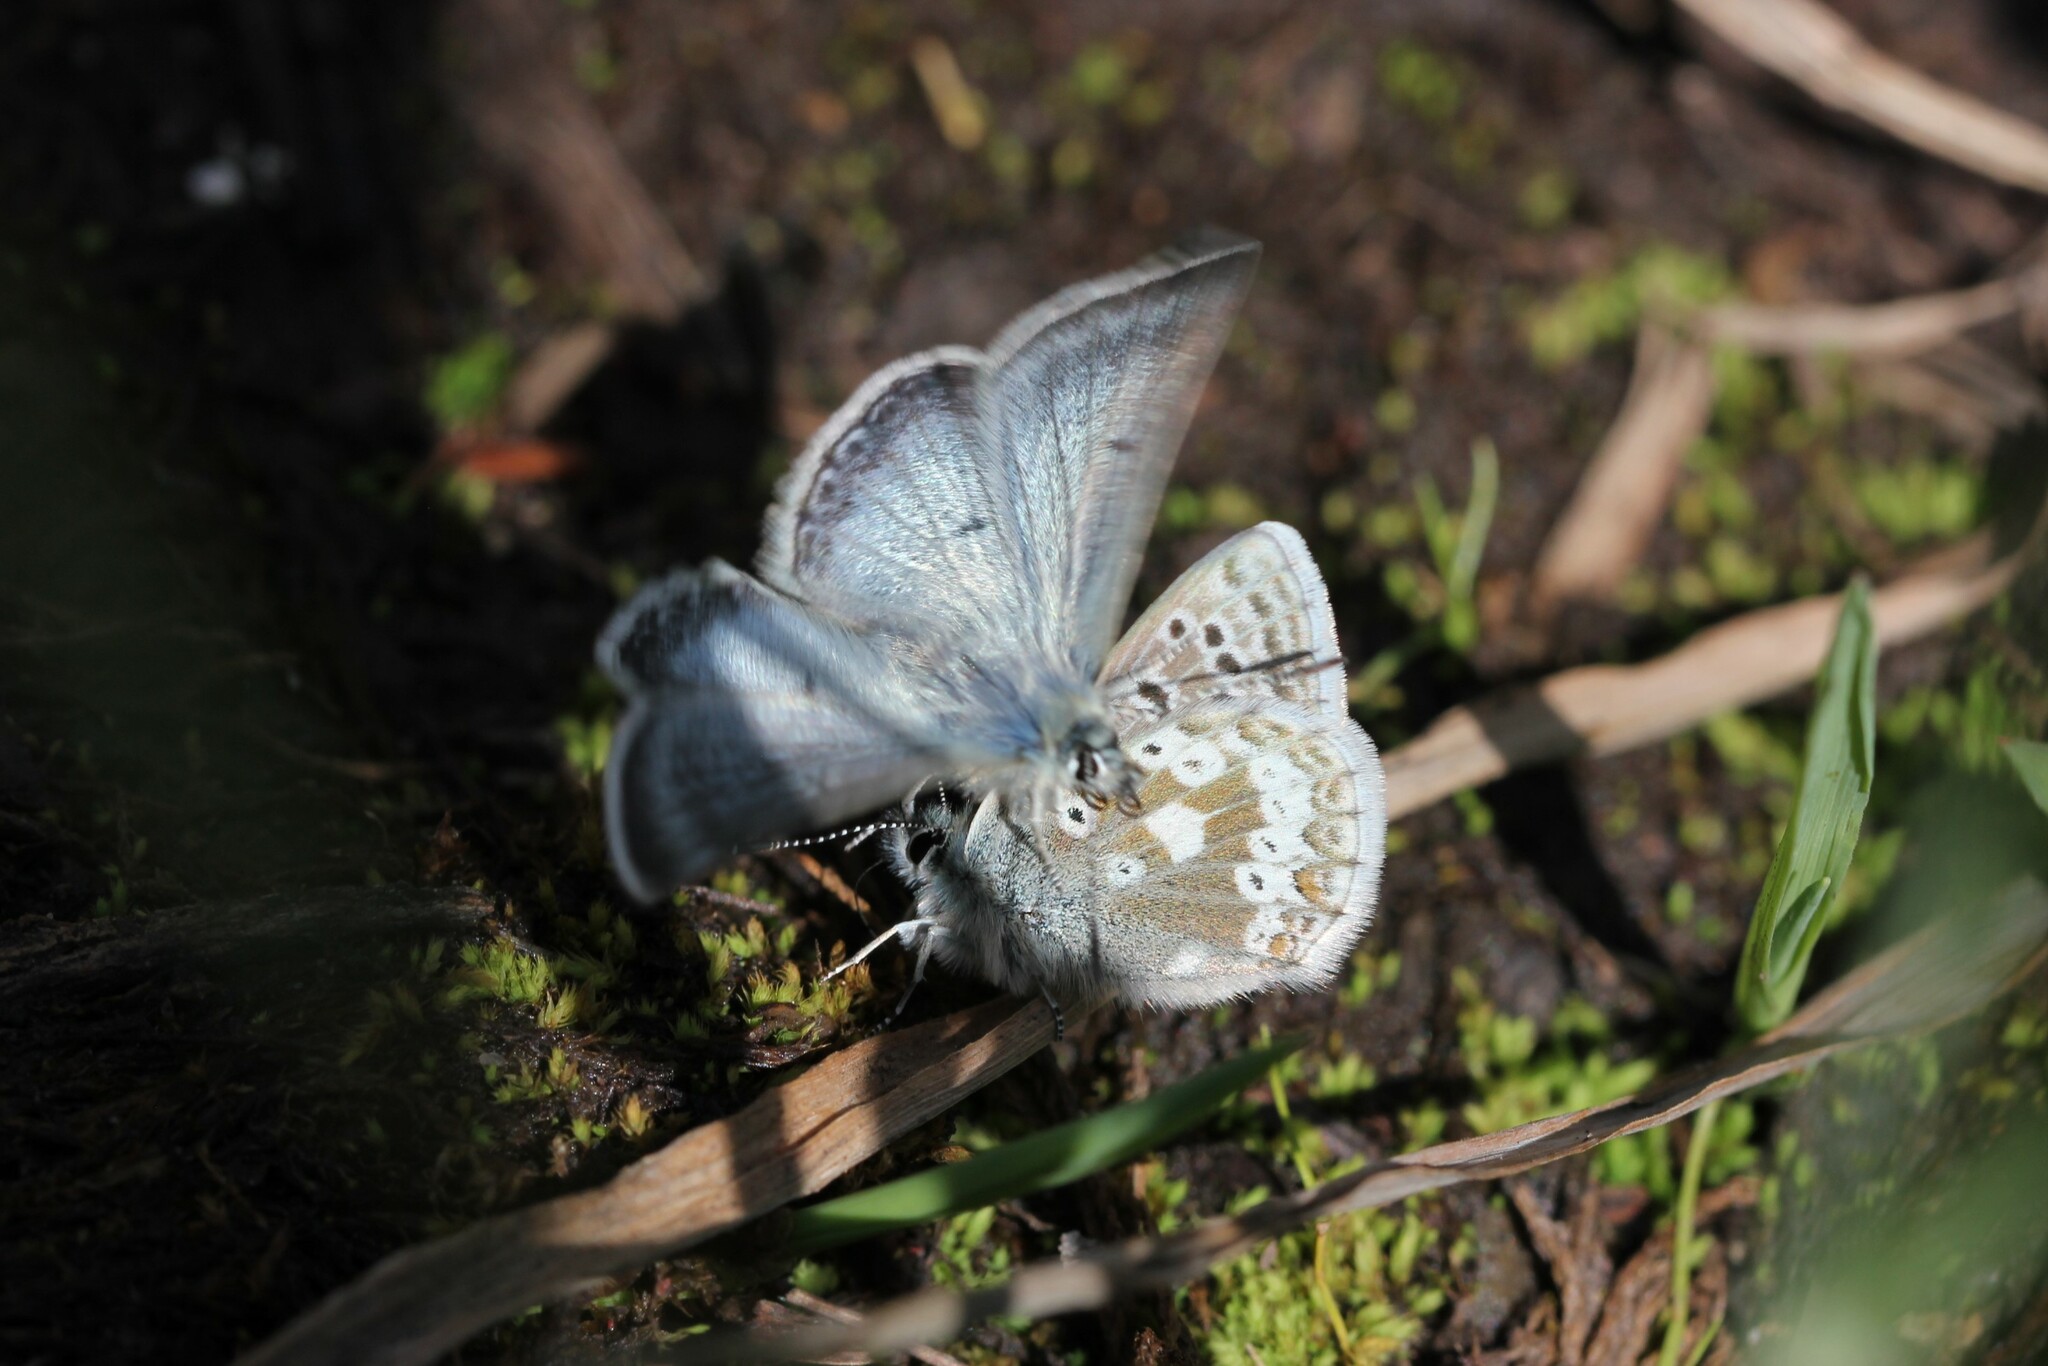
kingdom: Animalia
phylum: Arthropoda
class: Insecta
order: Lepidoptera
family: Lycaenidae
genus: Agriades
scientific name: Agriades glandon
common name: Glandon blue
